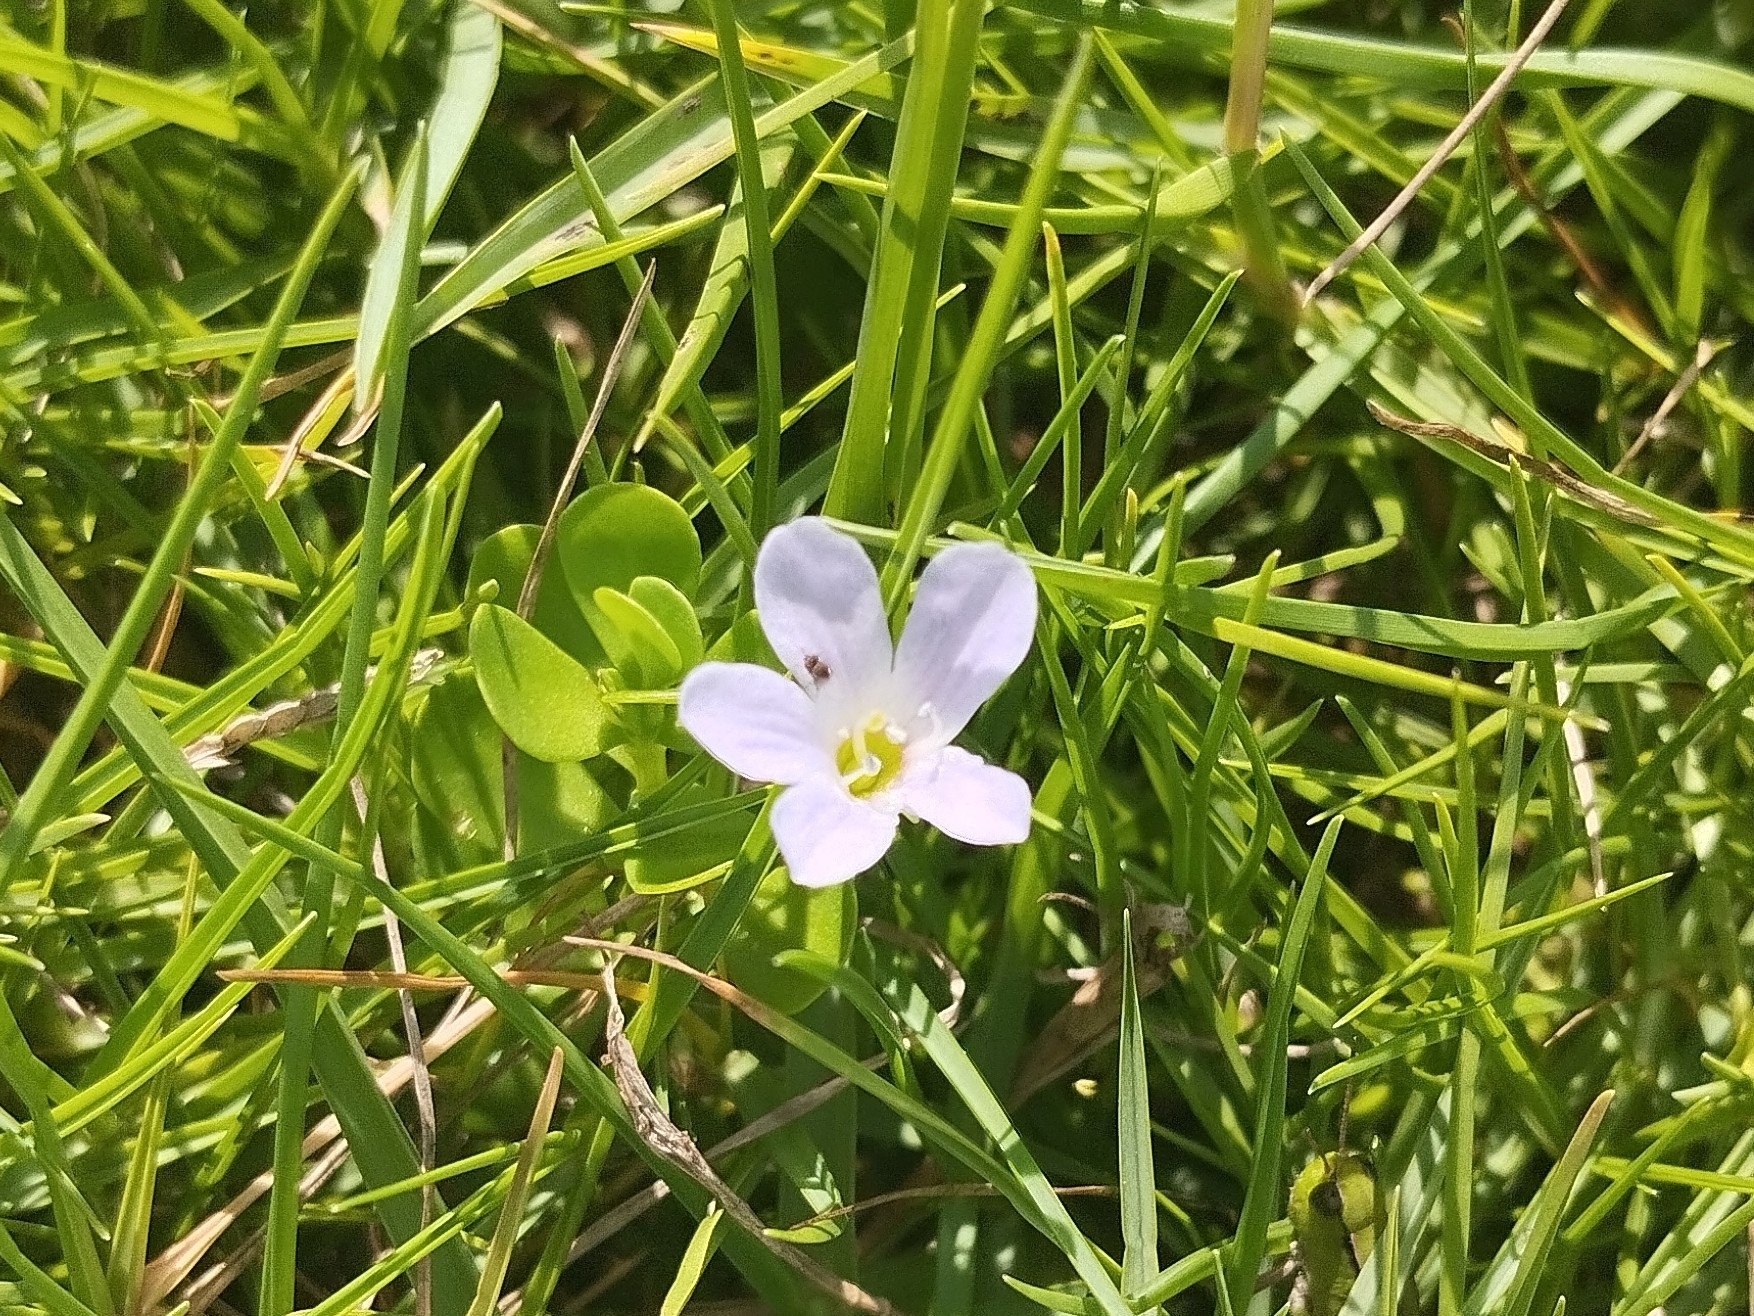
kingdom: Plantae
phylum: Tracheophyta
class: Magnoliopsida
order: Lamiales
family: Plantaginaceae
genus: Bacopa
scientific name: Bacopa monnieri
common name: Indian-pennywort
